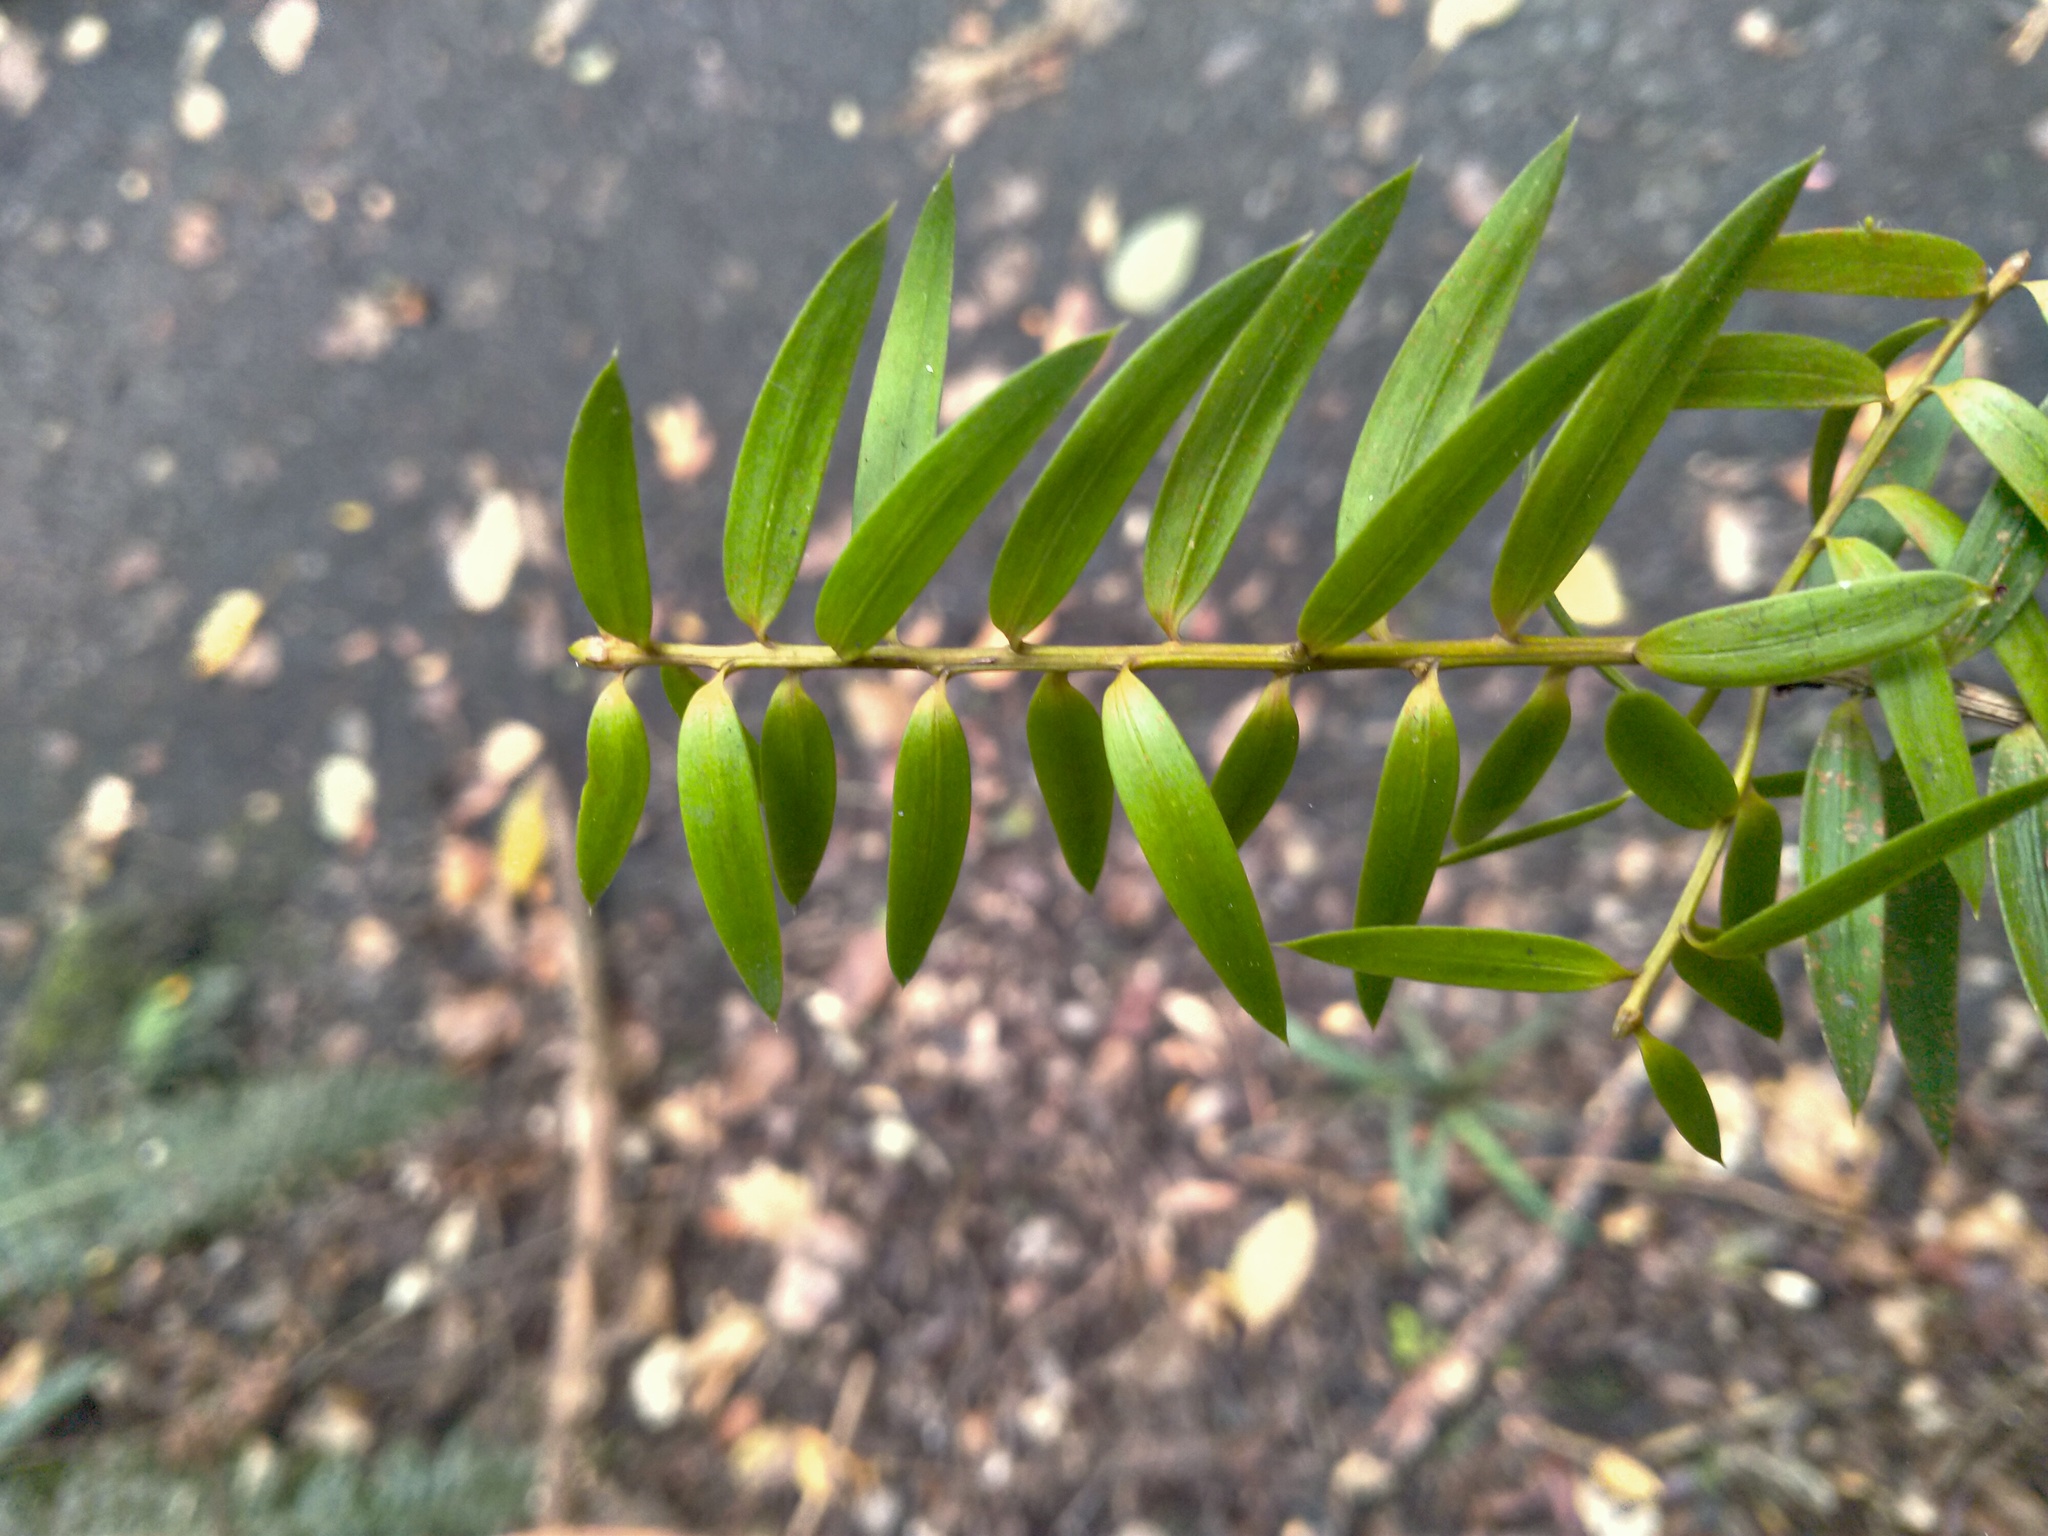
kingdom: Plantae
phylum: Tracheophyta
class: Pinopsida
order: Pinales
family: Podocarpaceae
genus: Podocarpus
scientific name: Podocarpus totara
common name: Totara
